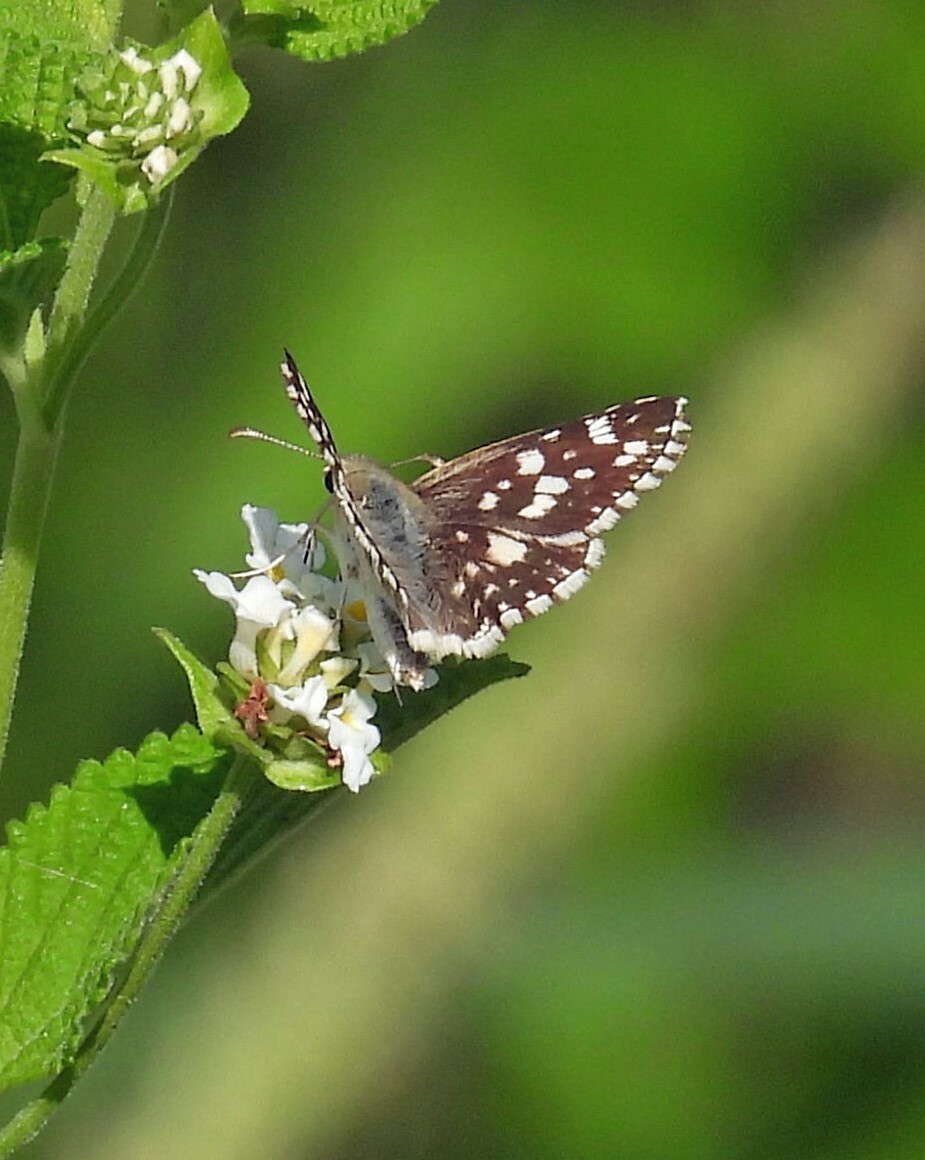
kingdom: Animalia
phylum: Arthropoda
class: Insecta
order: Lepidoptera
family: Hesperiidae
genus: Heliopetes
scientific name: Heliopetes americanus
